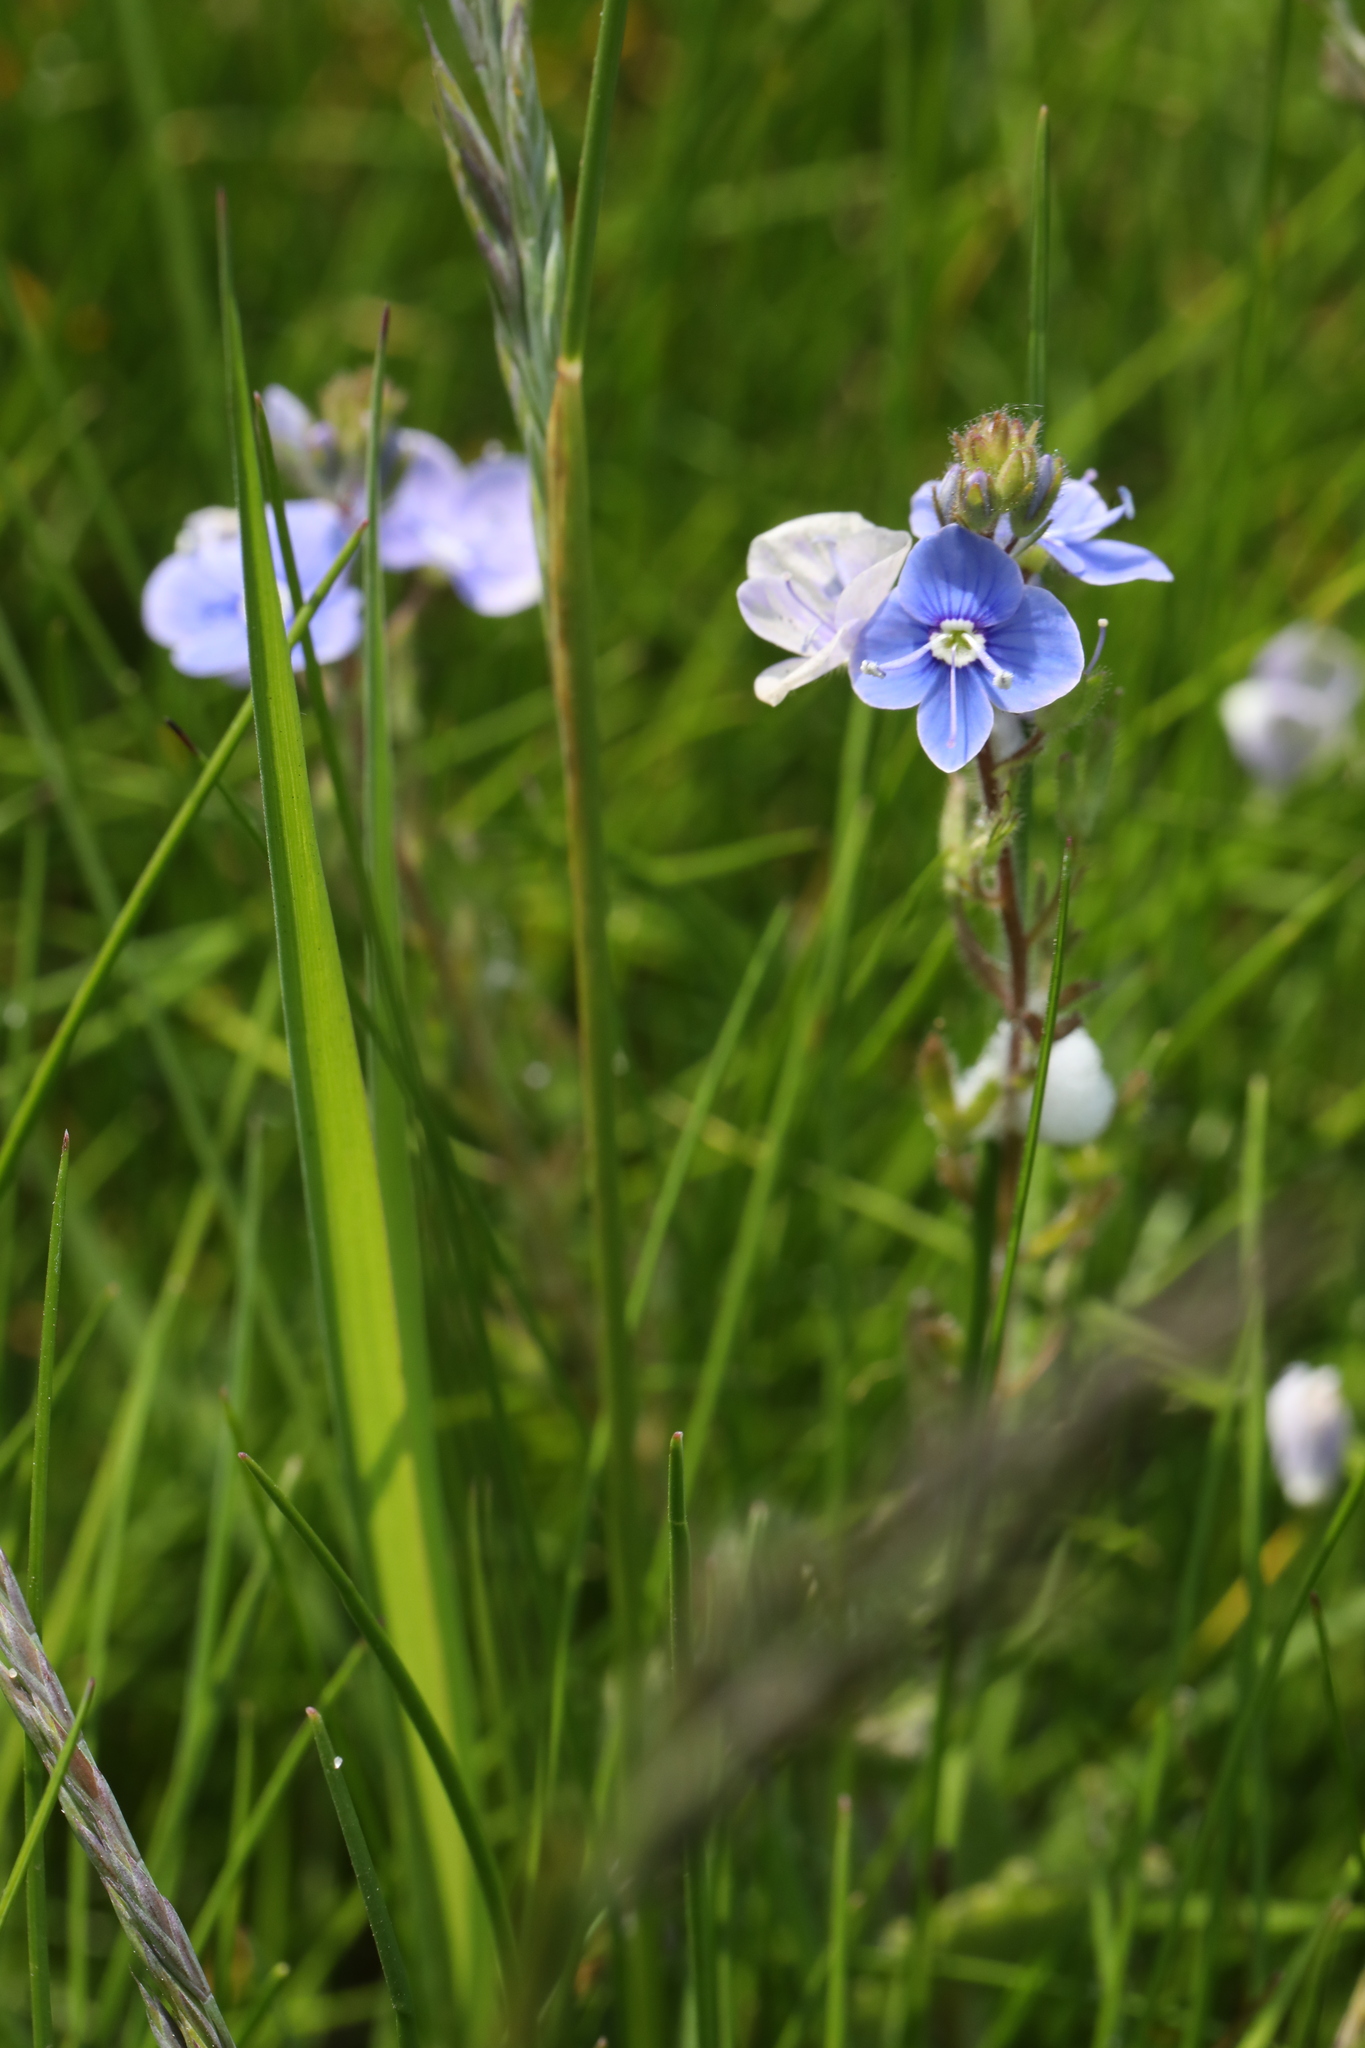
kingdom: Plantae
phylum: Tracheophyta
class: Magnoliopsida
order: Lamiales
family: Plantaginaceae
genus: Veronica
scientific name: Veronica chamaedrys
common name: Germander speedwell
